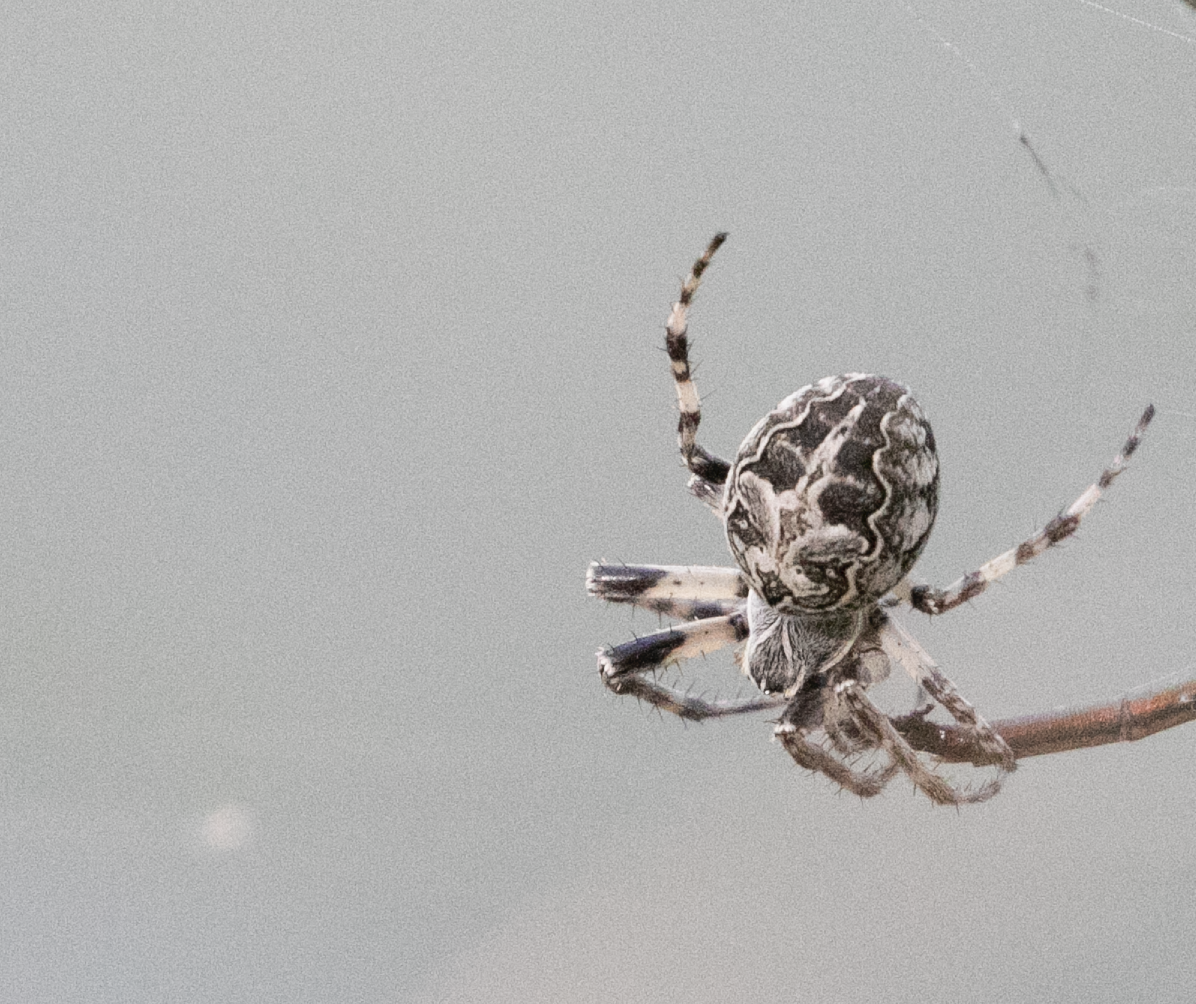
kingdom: Animalia
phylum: Arthropoda
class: Arachnida
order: Araneae
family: Araneidae
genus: Larinioides
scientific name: Larinioides sclopetarius
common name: Bridge orbweaver
